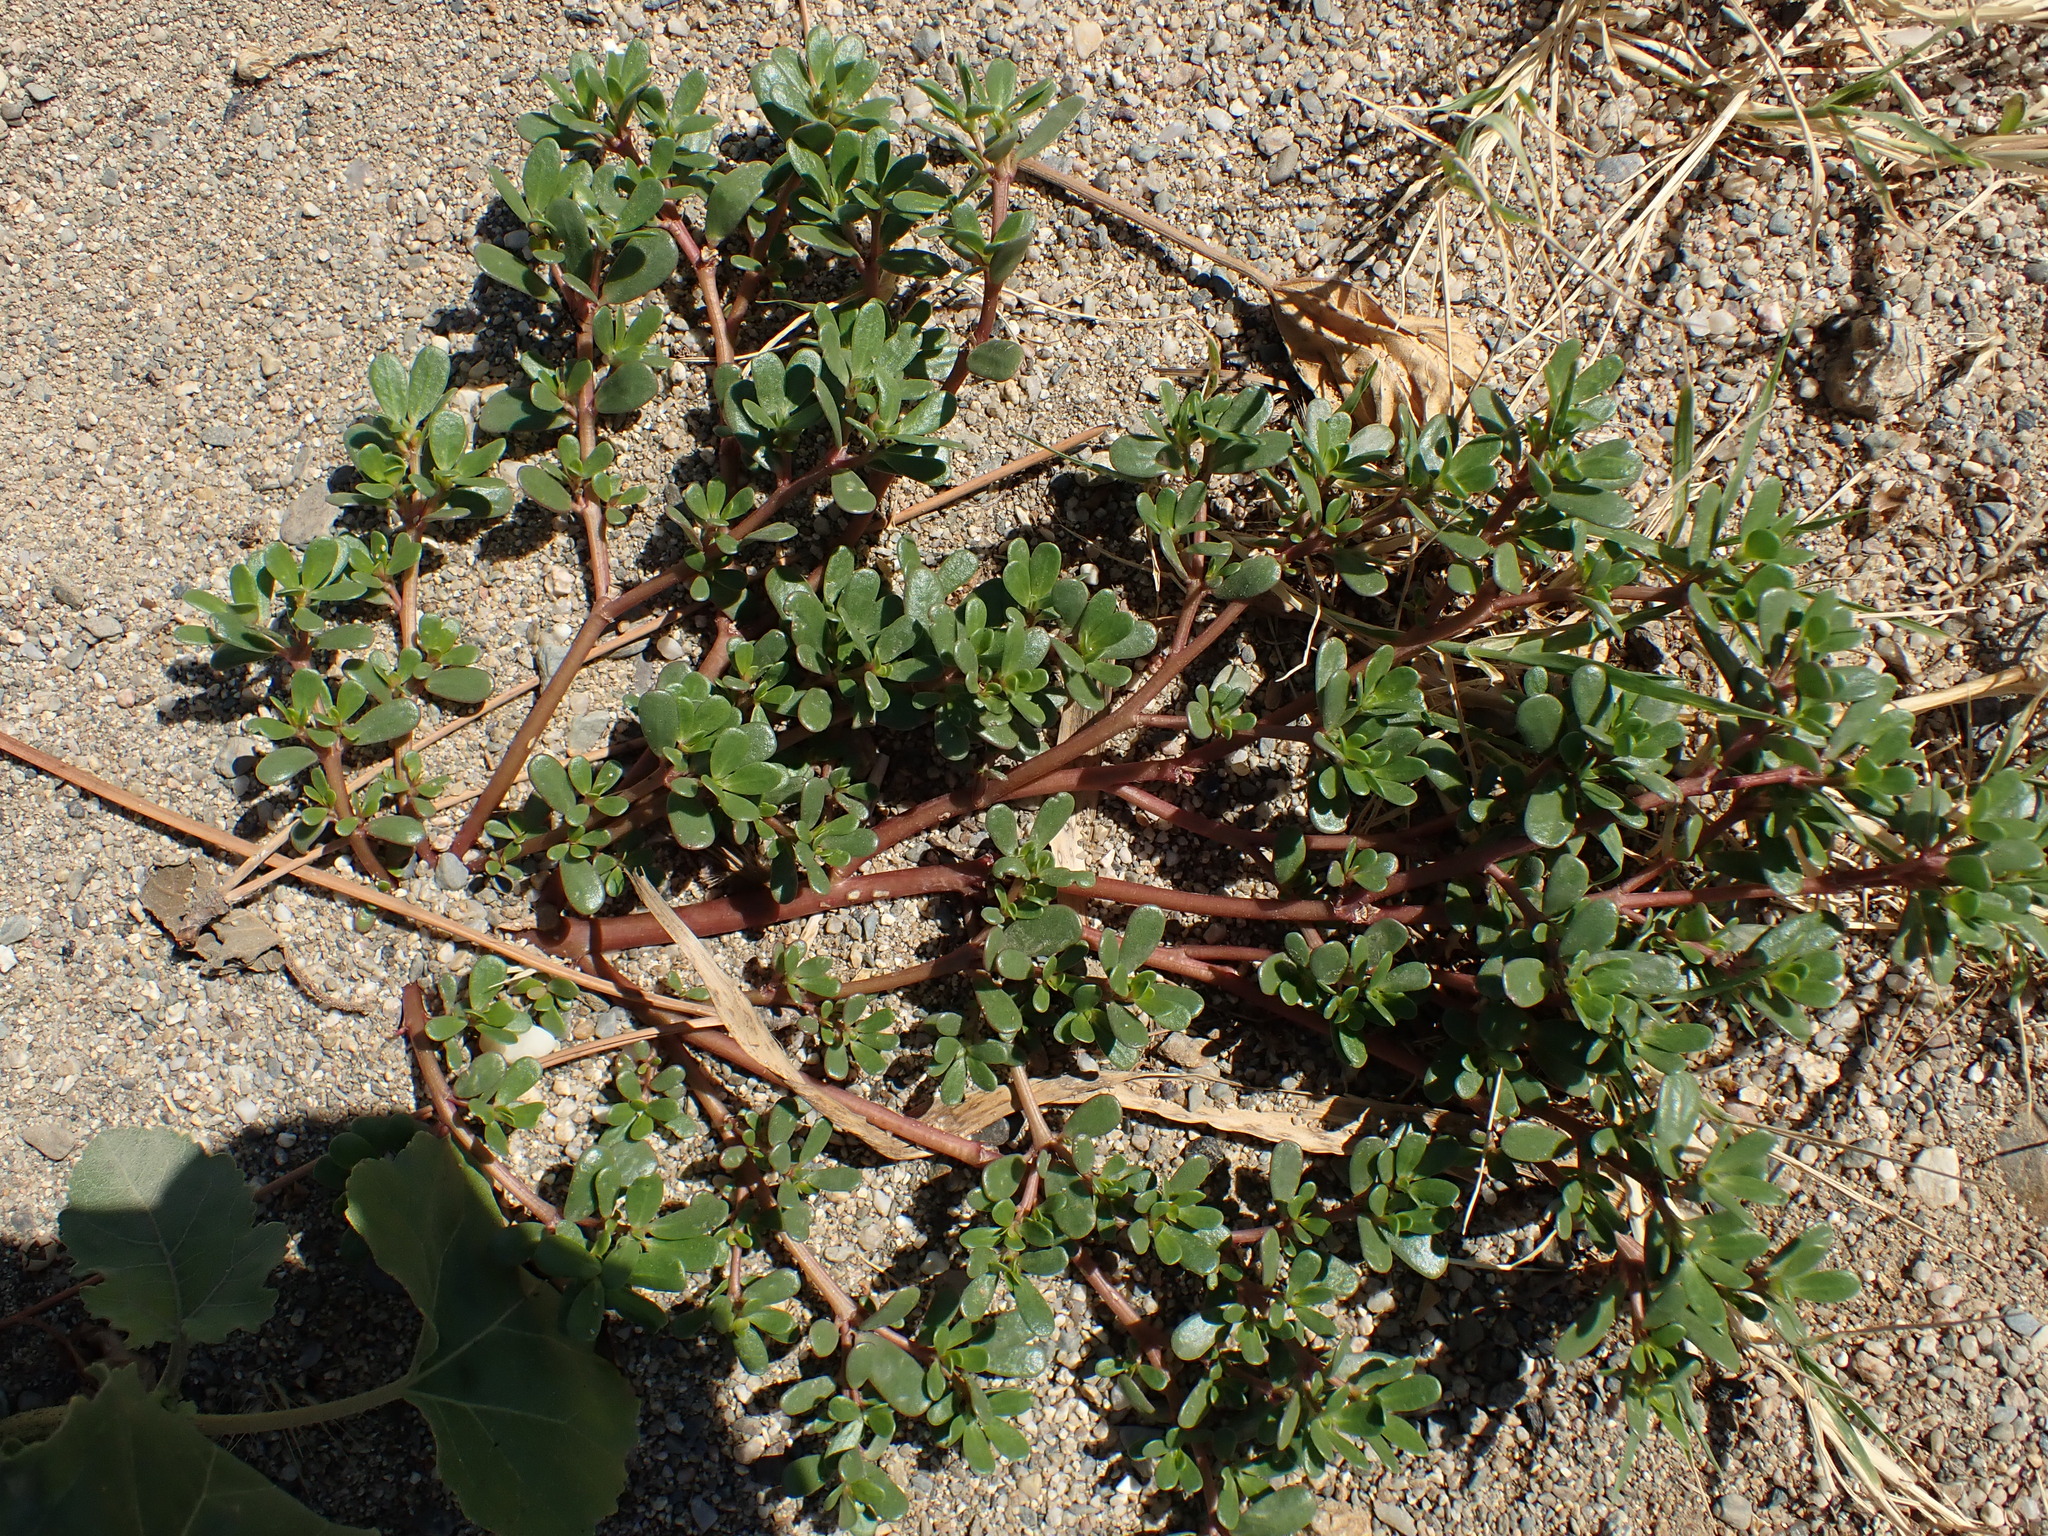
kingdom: Plantae
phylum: Tracheophyta
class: Magnoliopsida
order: Caryophyllales
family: Portulacaceae
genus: Portulaca
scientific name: Portulaca oleracea
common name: Common purslane
